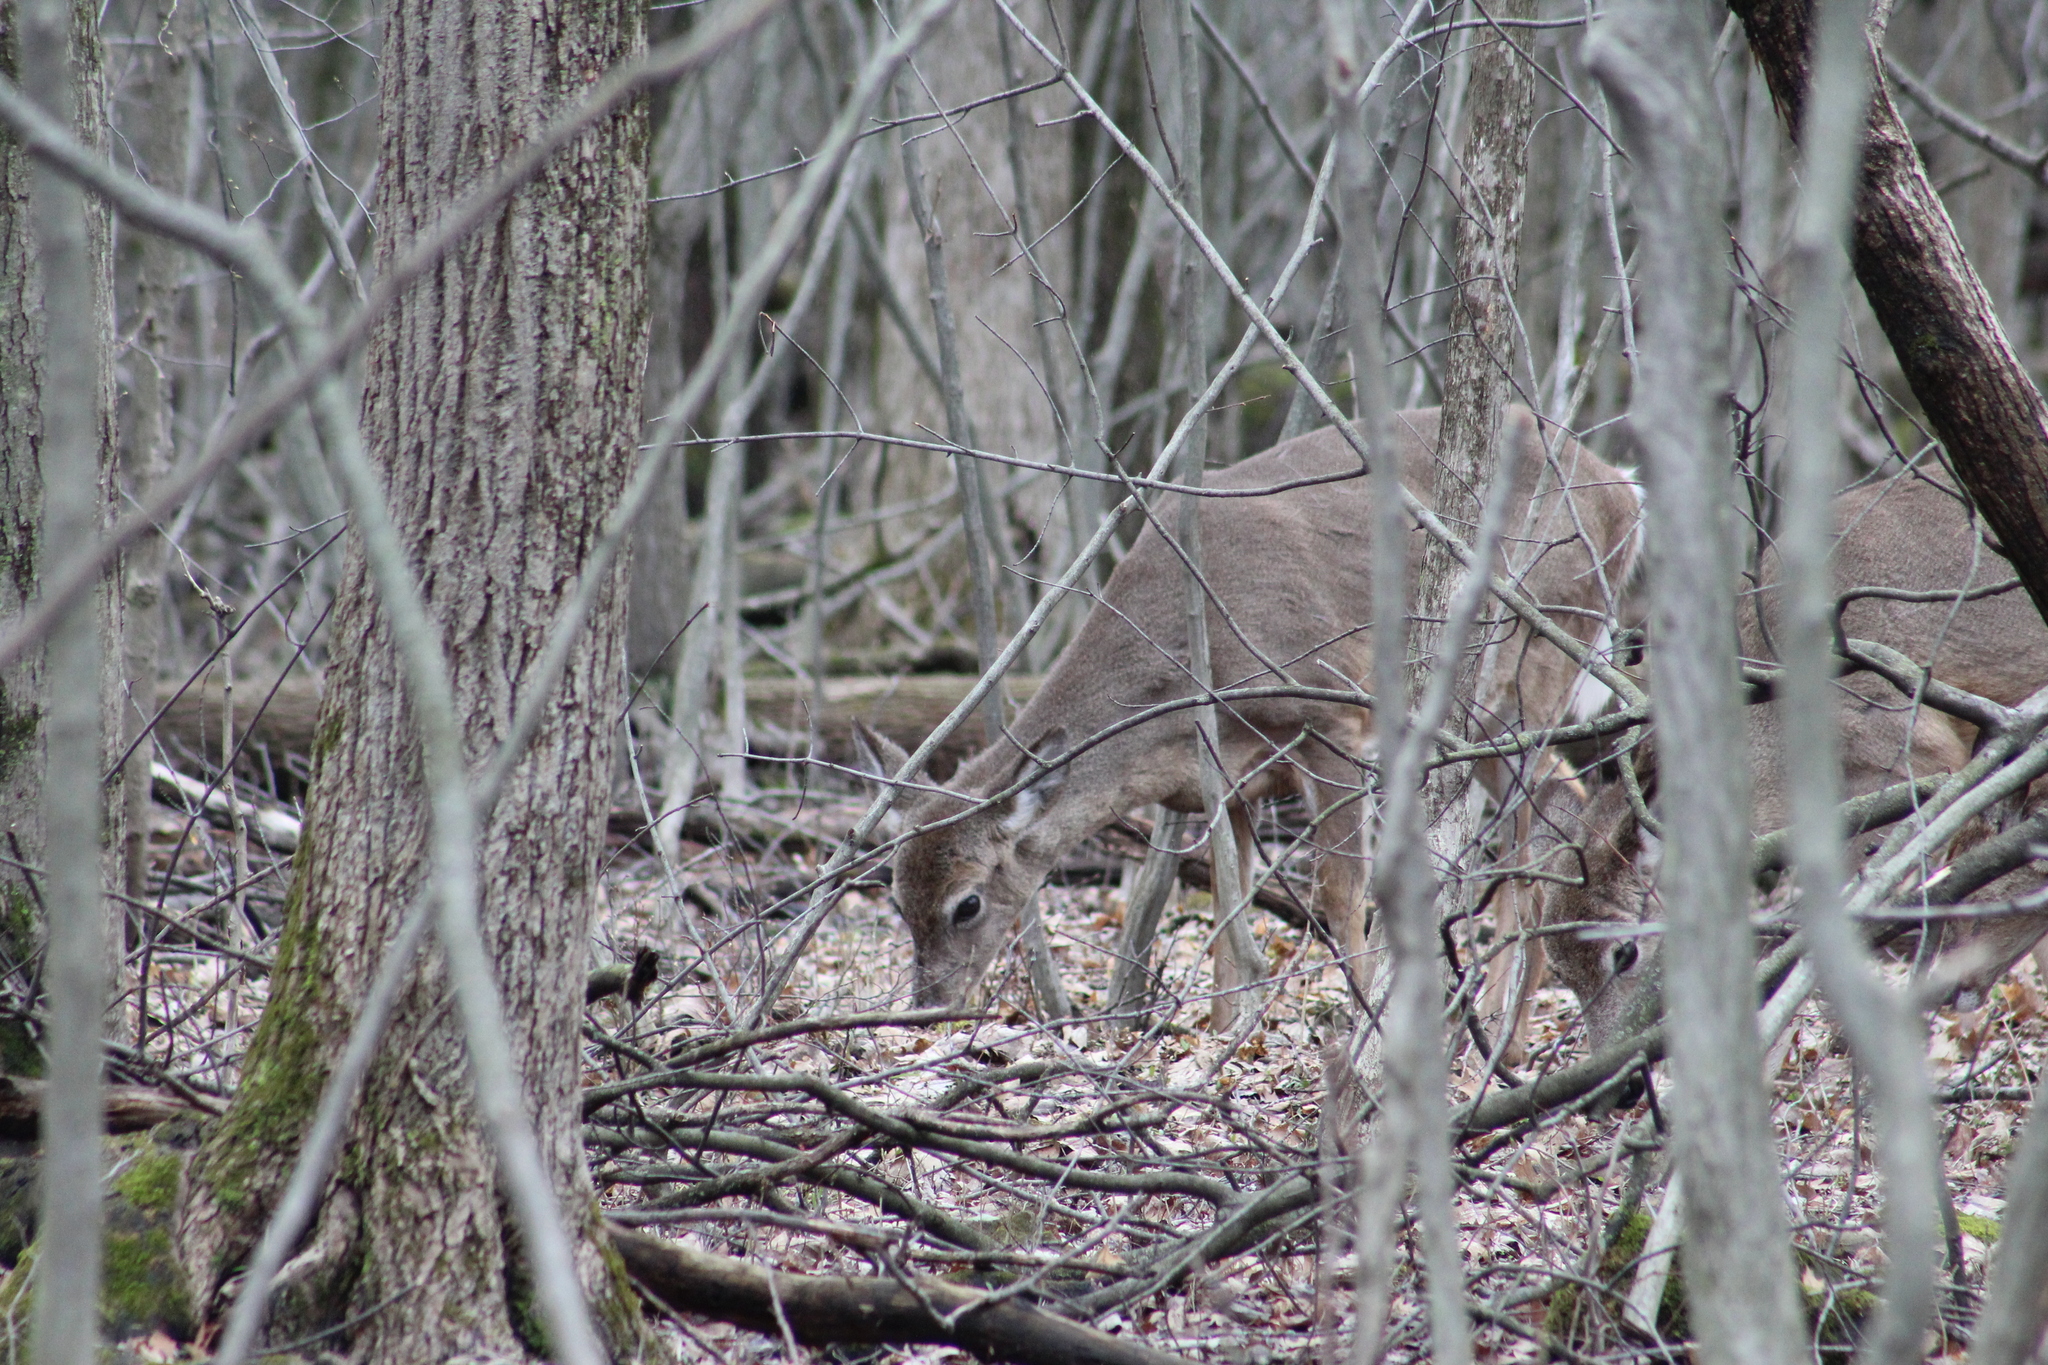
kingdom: Animalia
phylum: Chordata
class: Mammalia
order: Artiodactyla
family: Cervidae
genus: Odocoileus
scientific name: Odocoileus virginianus
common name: White-tailed deer
